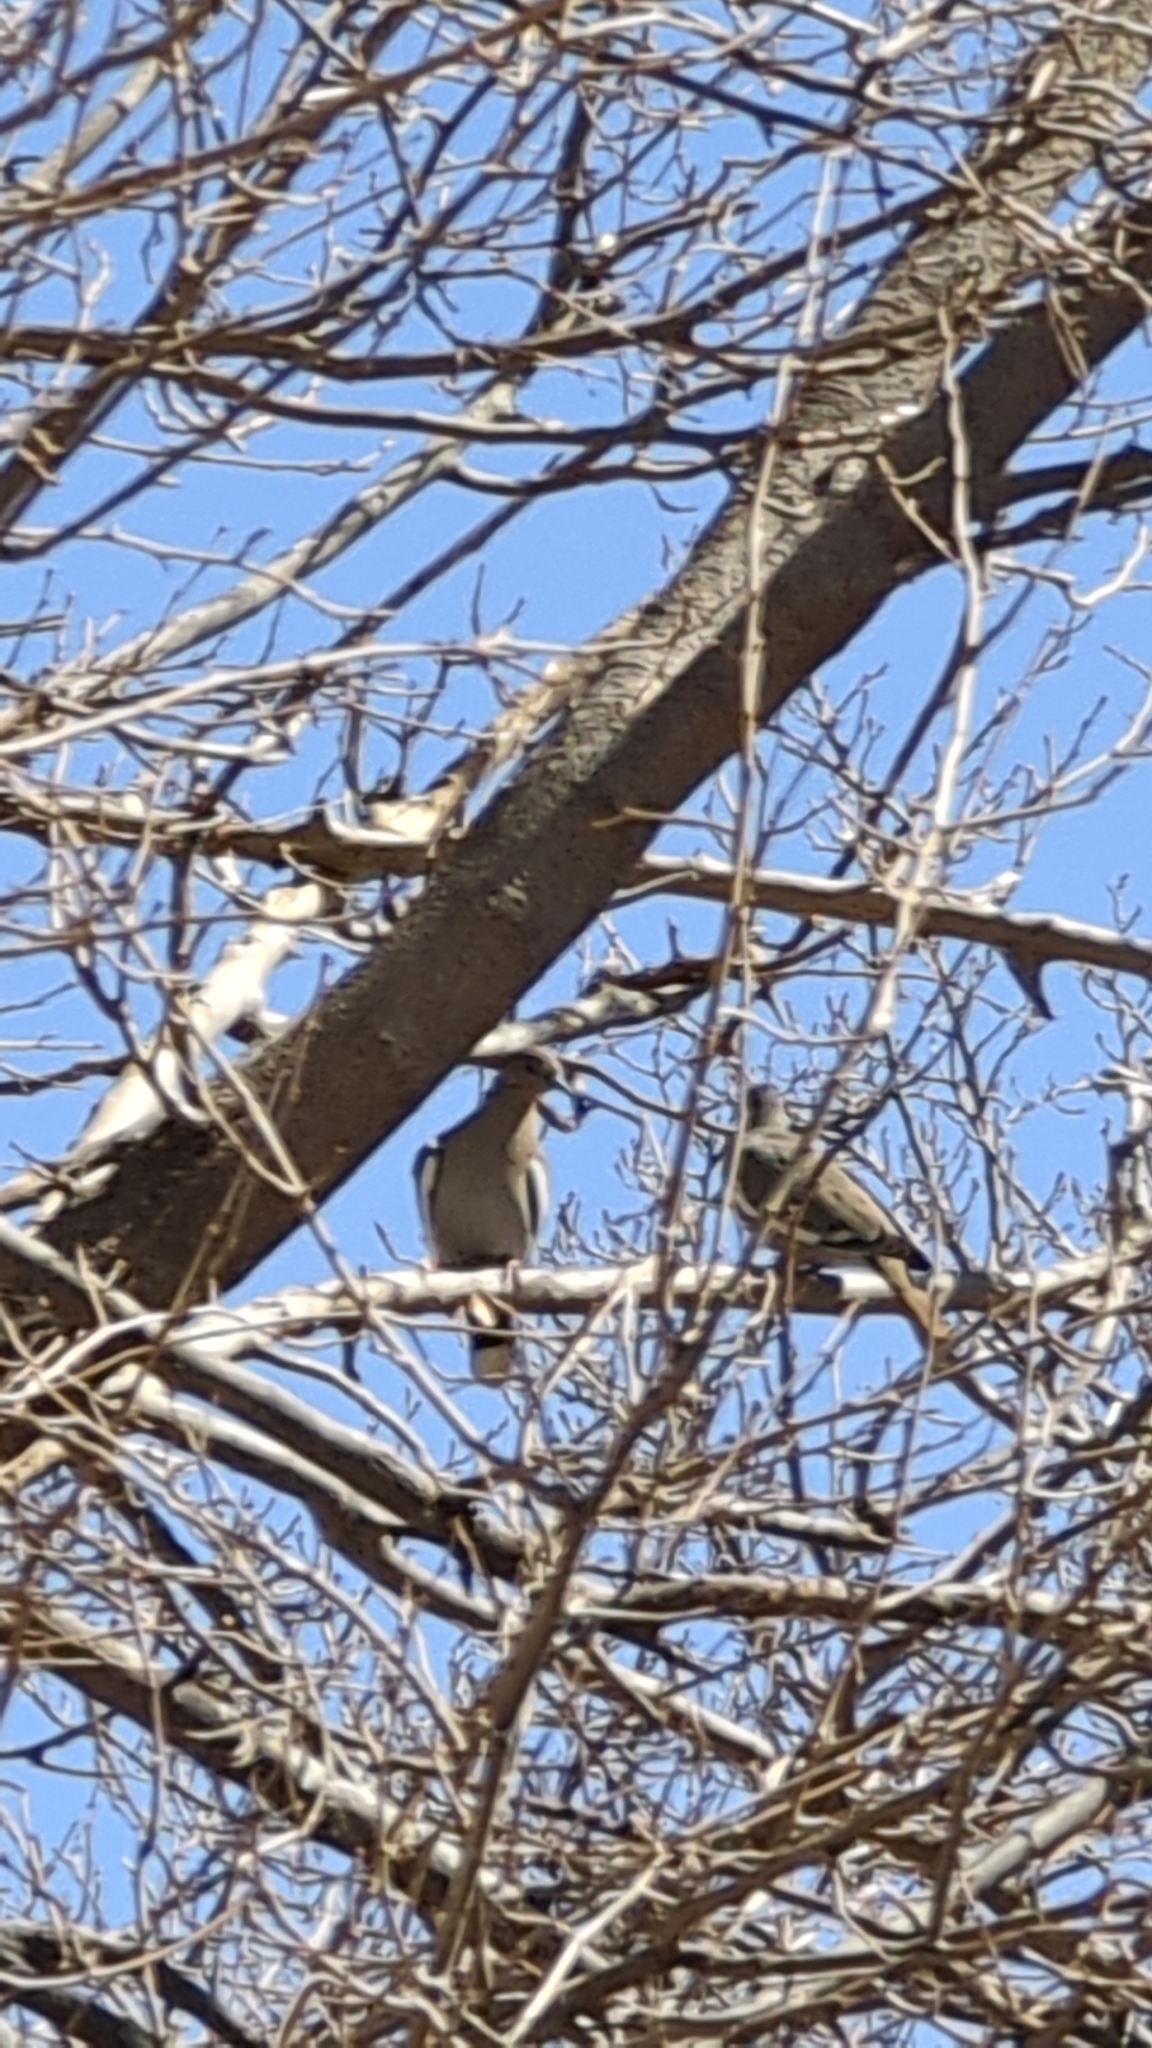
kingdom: Animalia
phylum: Chordata
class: Aves
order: Columbiformes
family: Columbidae
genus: Zenaida
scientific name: Zenaida asiatica
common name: White-winged dove
